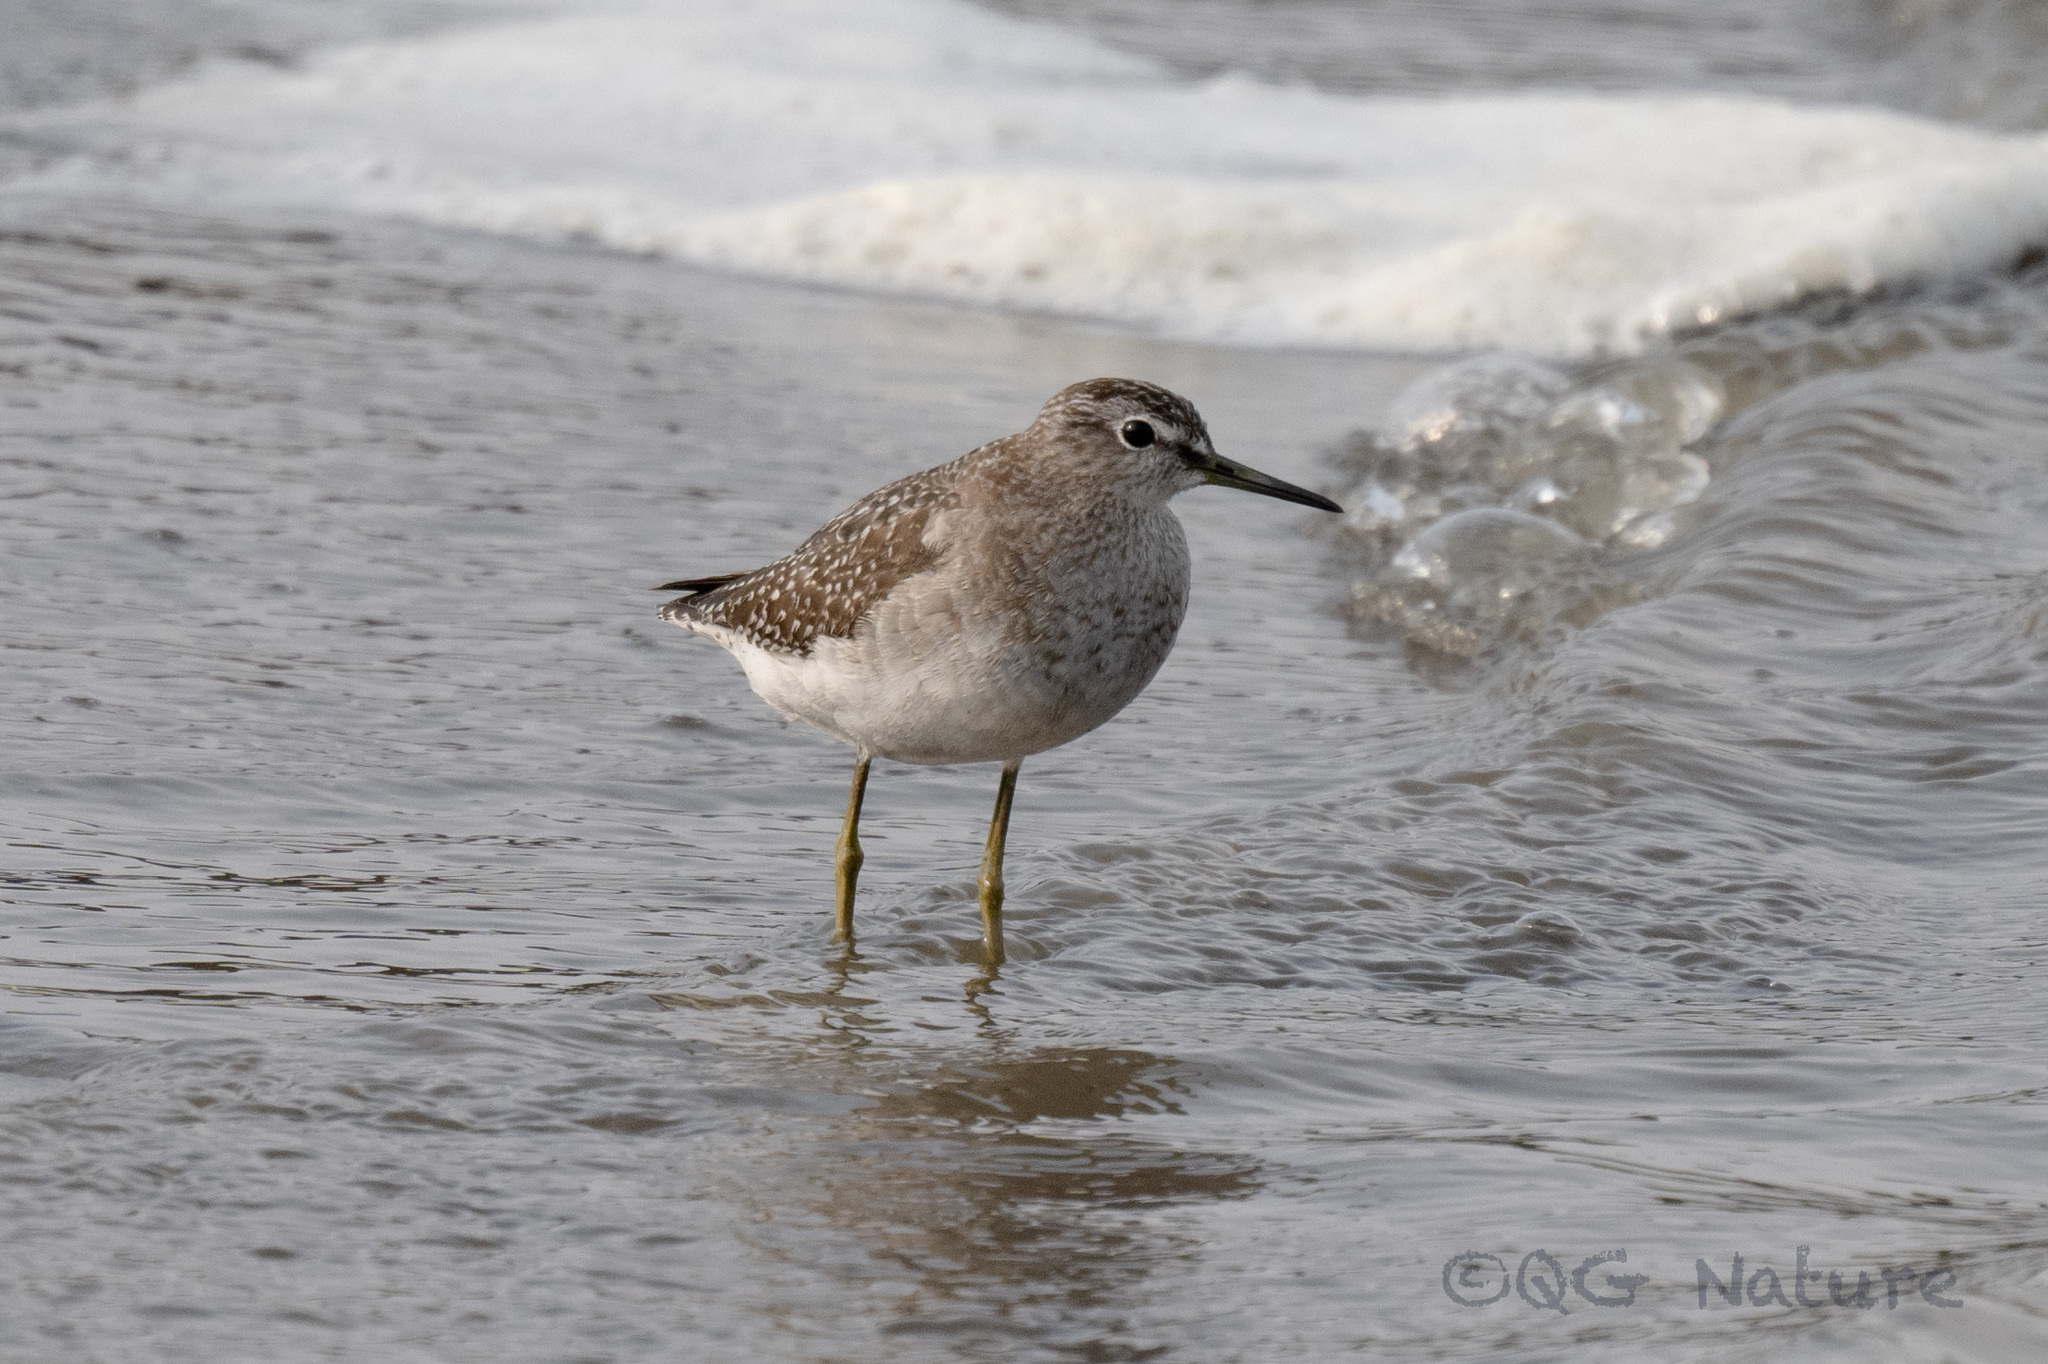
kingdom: Animalia
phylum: Chordata
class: Aves
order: Charadriiformes
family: Scolopacidae
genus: Tringa
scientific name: Tringa glareola
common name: Wood sandpiper
